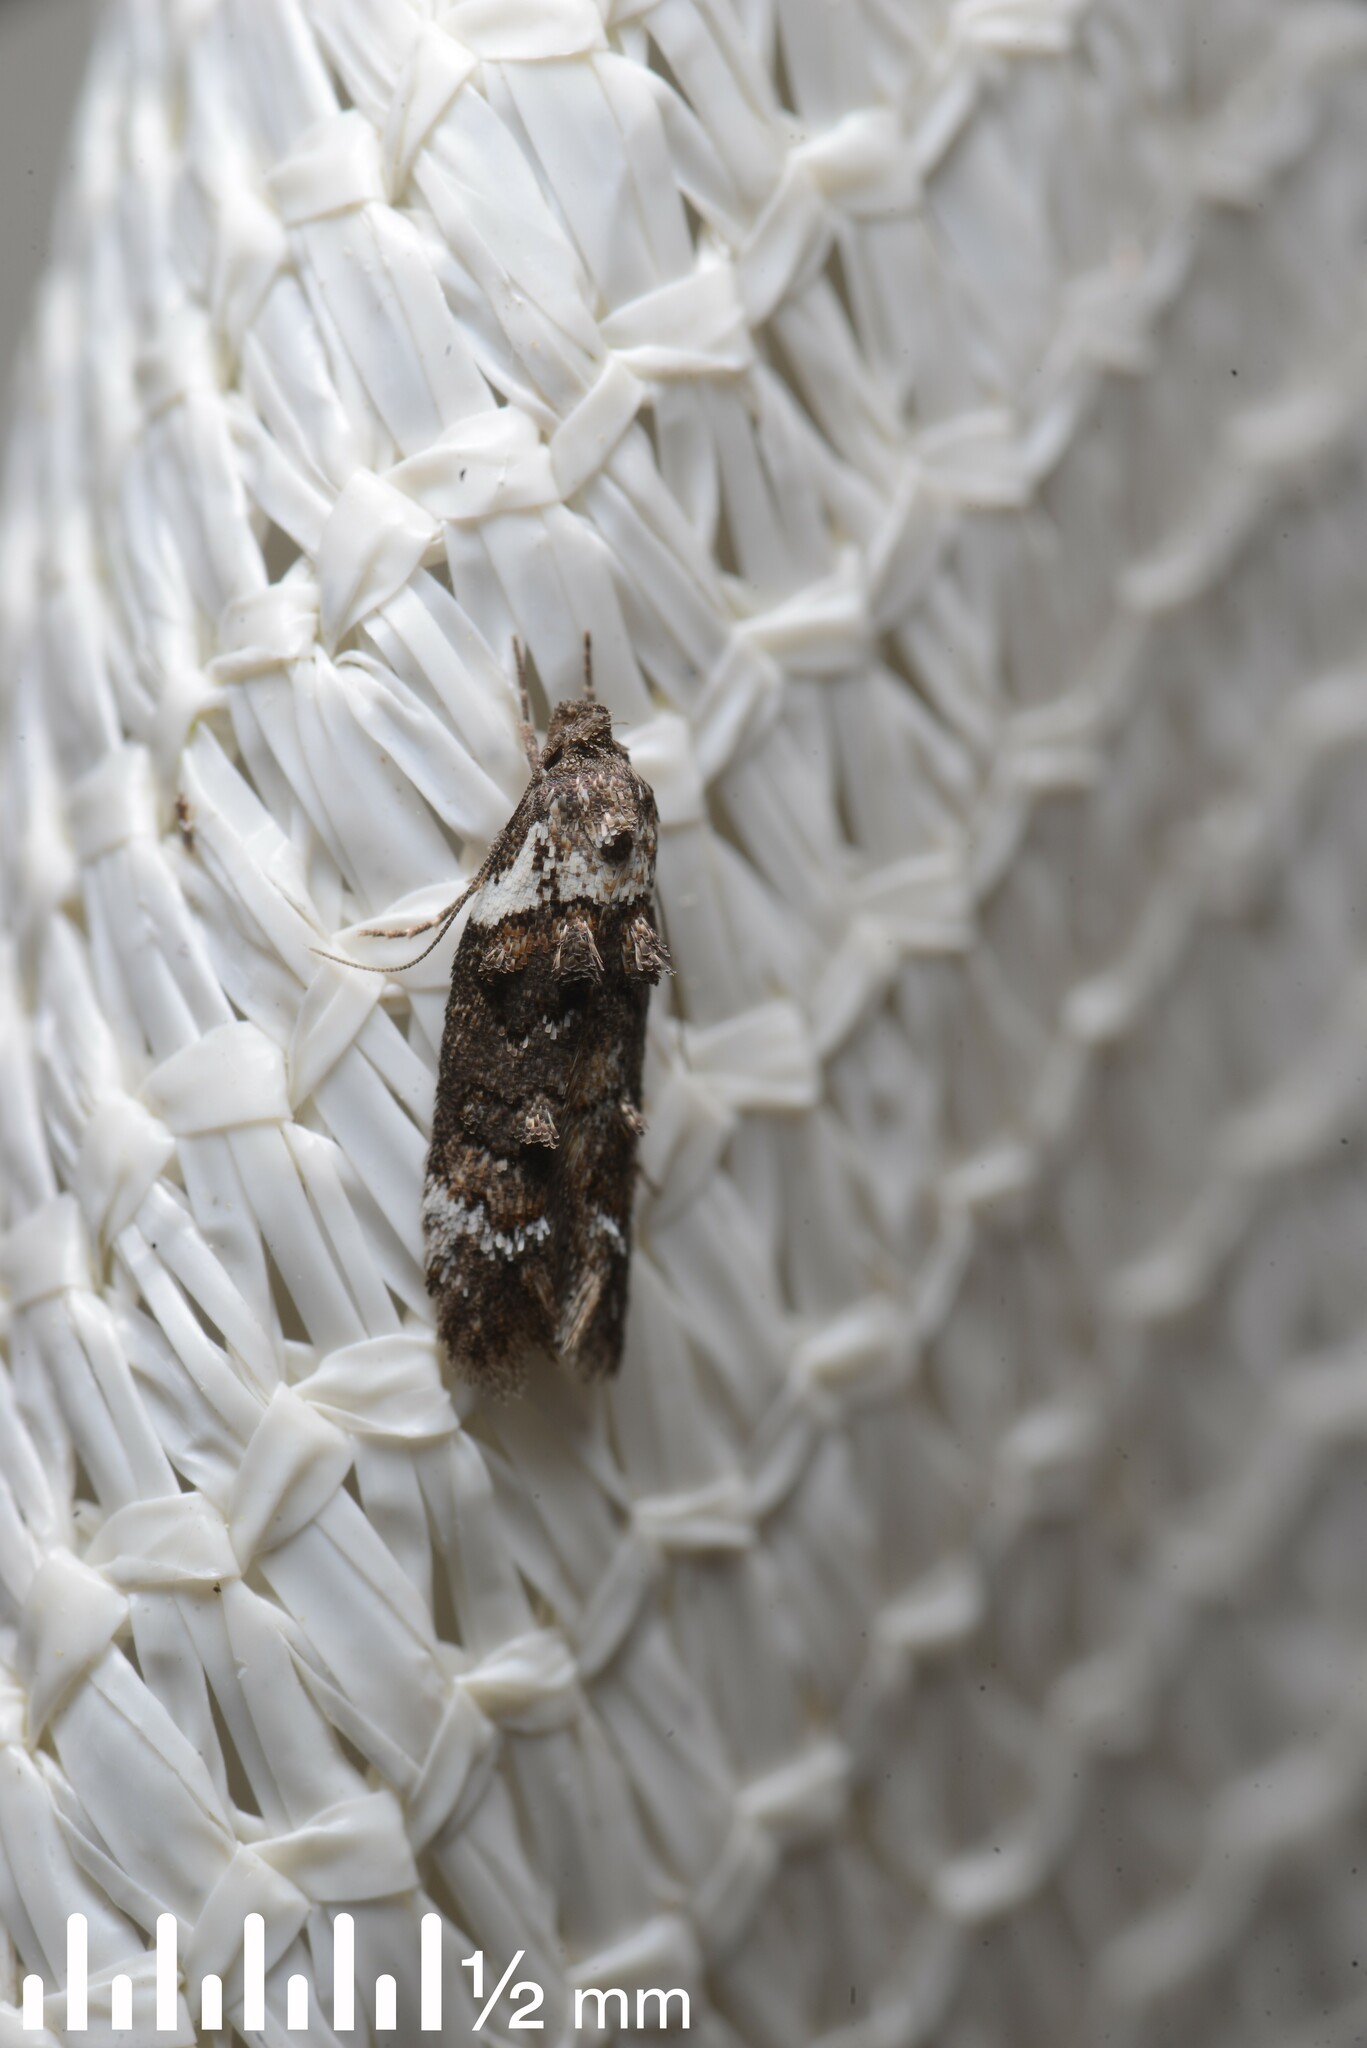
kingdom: Animalia
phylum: Arthropoda
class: Insecta
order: Lepidoptera
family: Oecophoridae
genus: Trachypepla
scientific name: Trachypepla conspicuella
